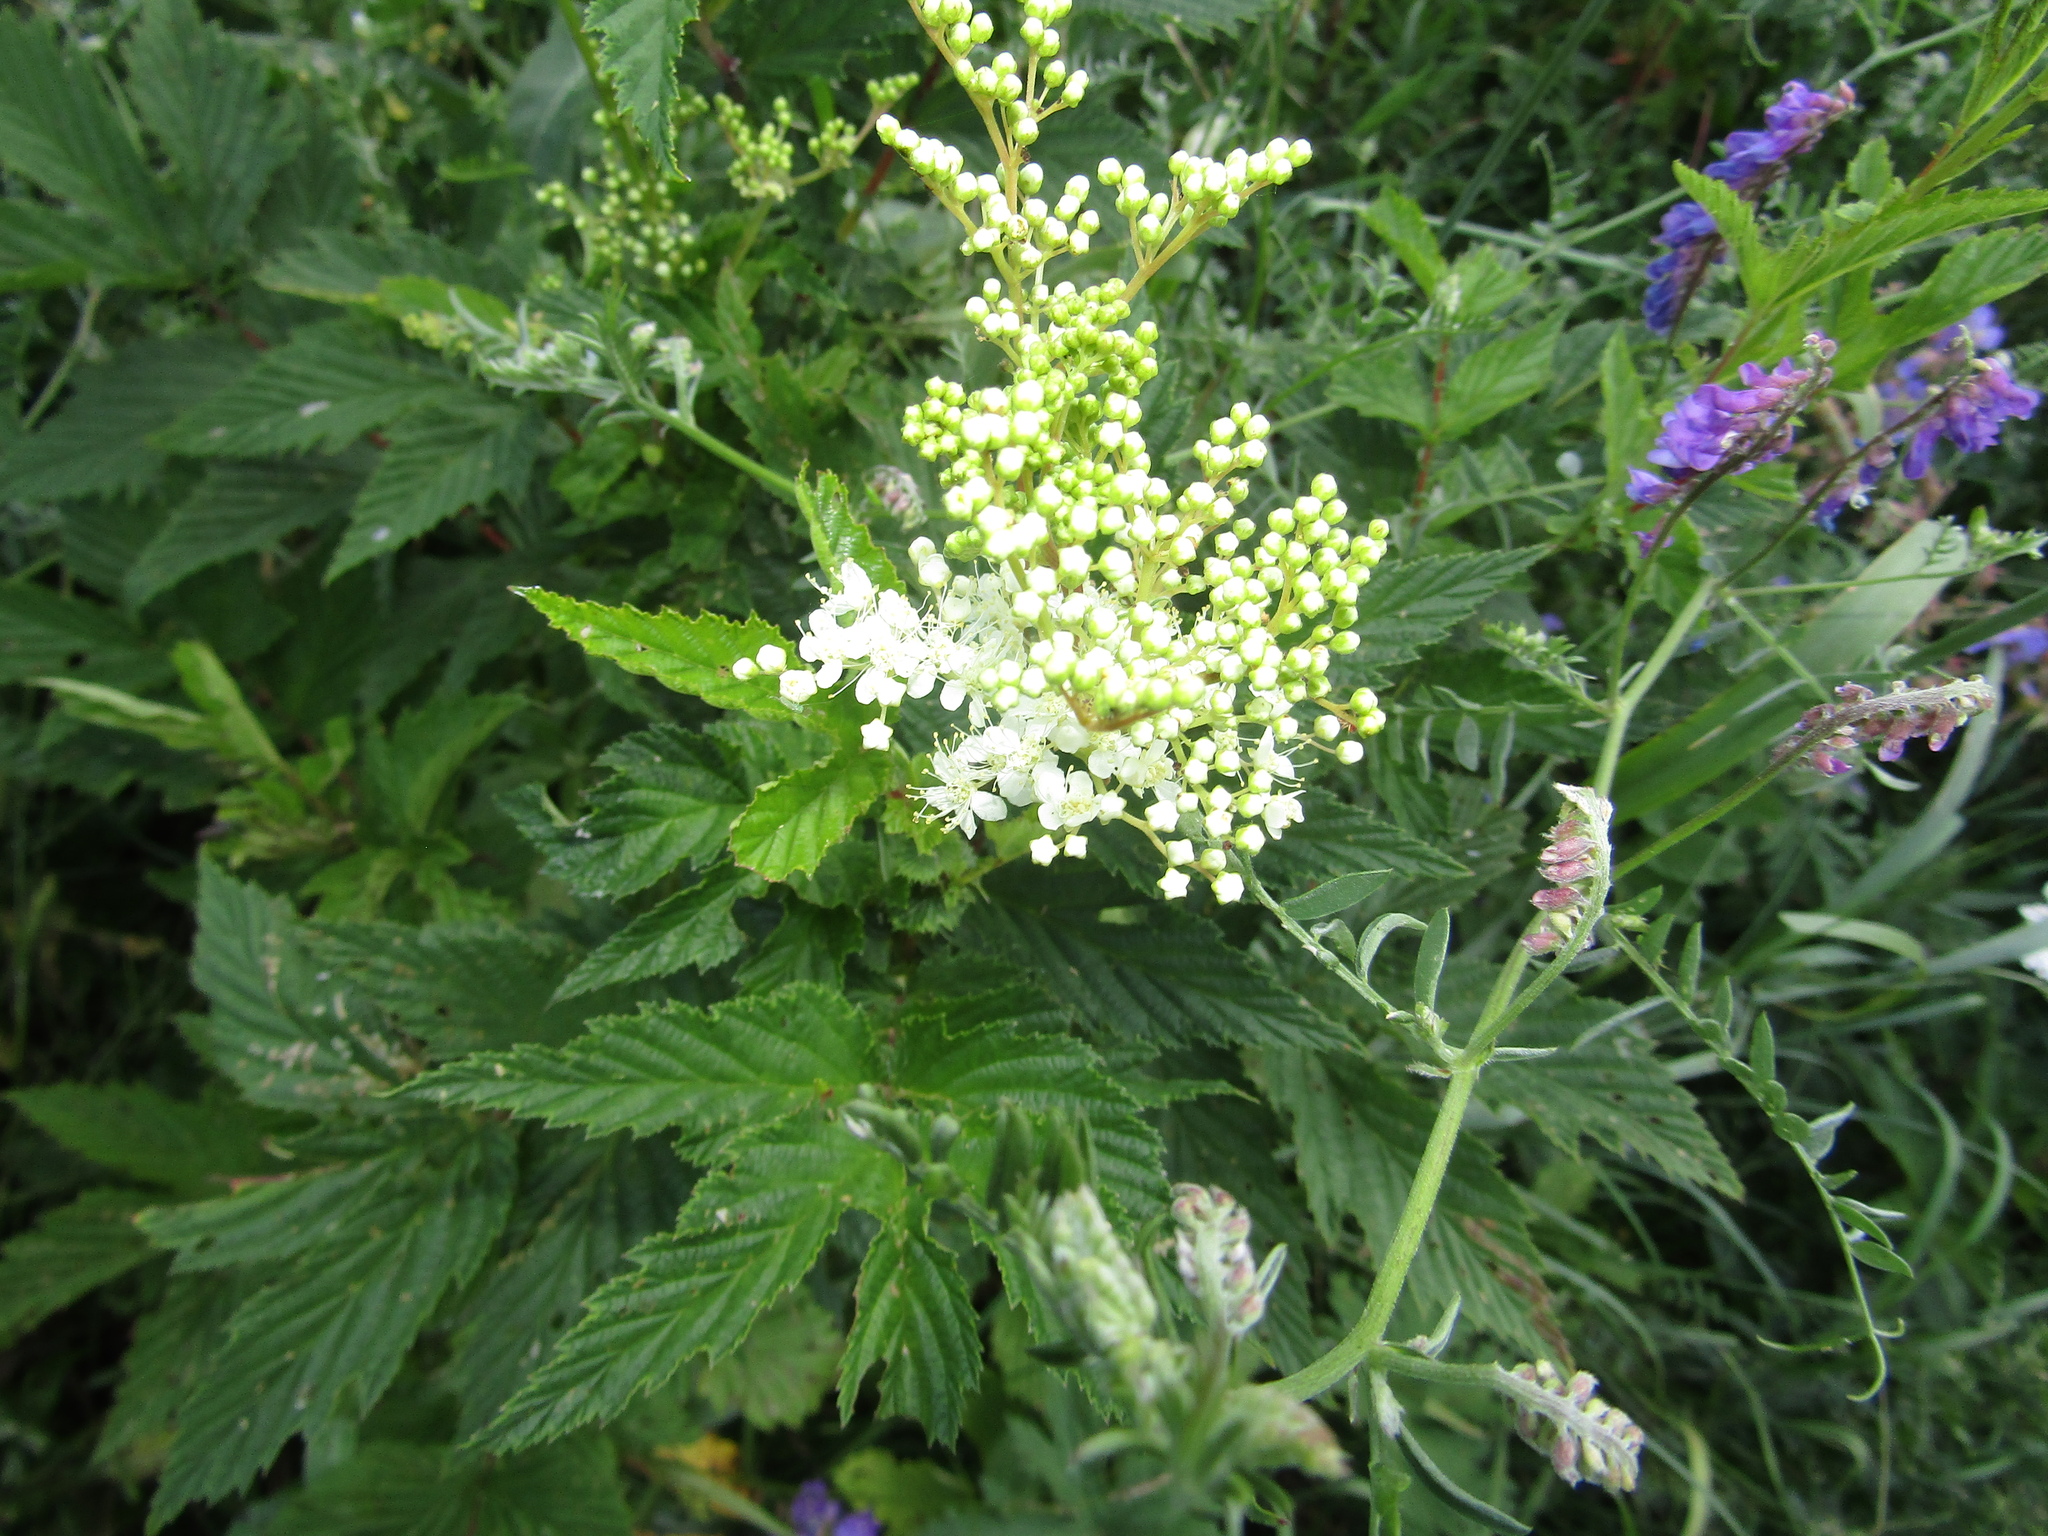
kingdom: Plantae
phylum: Tracheophyta
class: Magnoliopsida
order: Rosales
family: Rosaceae
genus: Filipendula
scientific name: Filipendula ulmaria
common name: Meadowsweet
